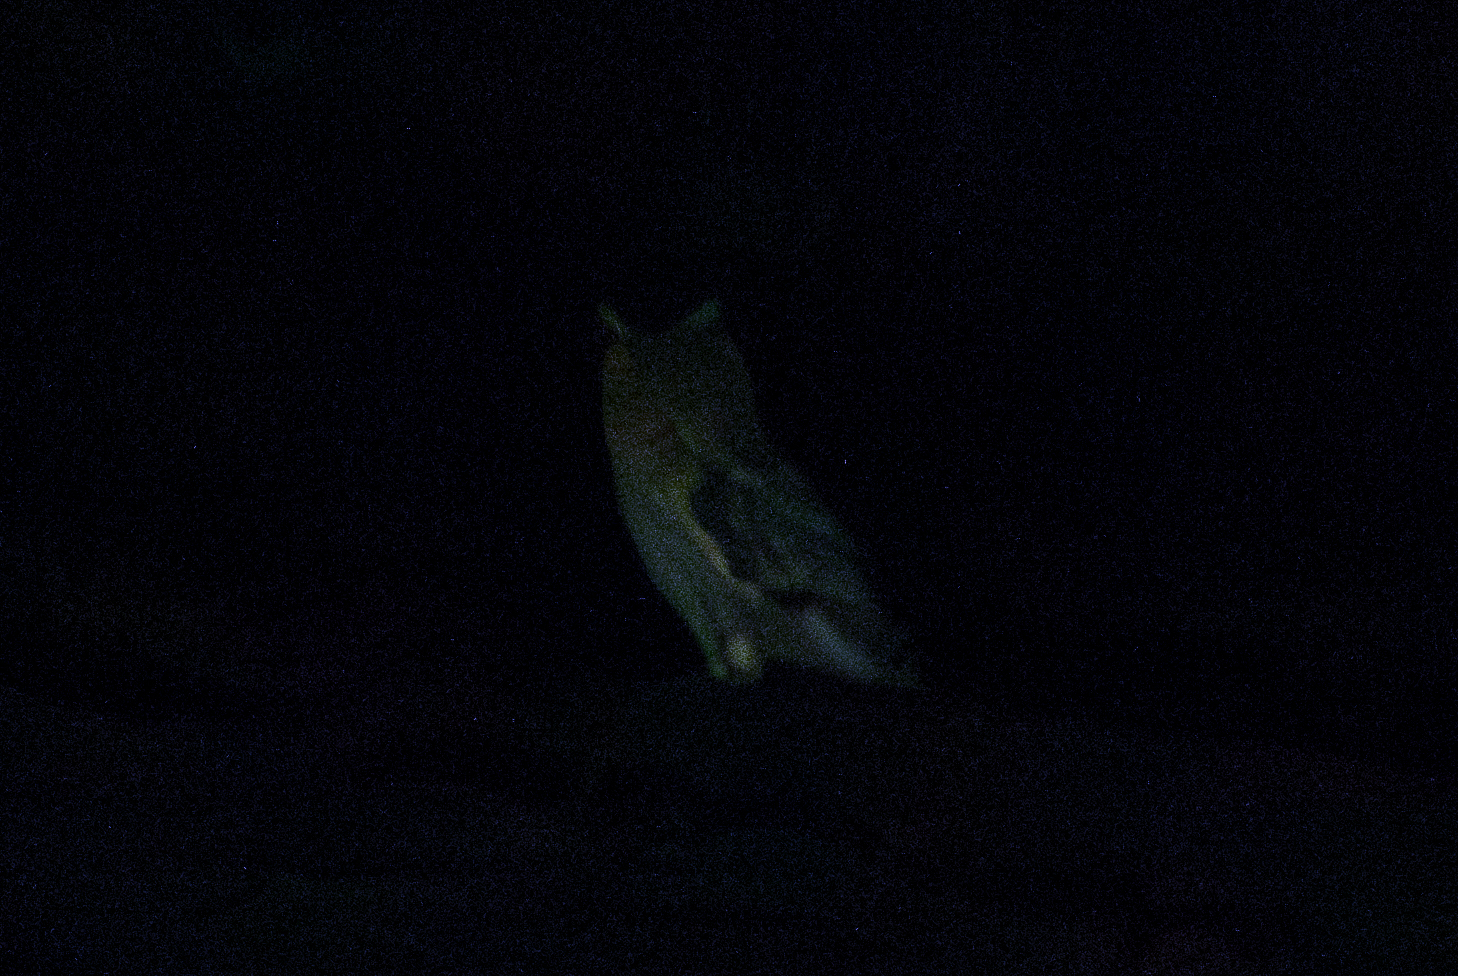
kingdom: Animalia
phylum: Chordata
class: Aves
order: Strigiformes
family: Strigidae
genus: Asio
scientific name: Asio otus
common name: Long-eared owl
